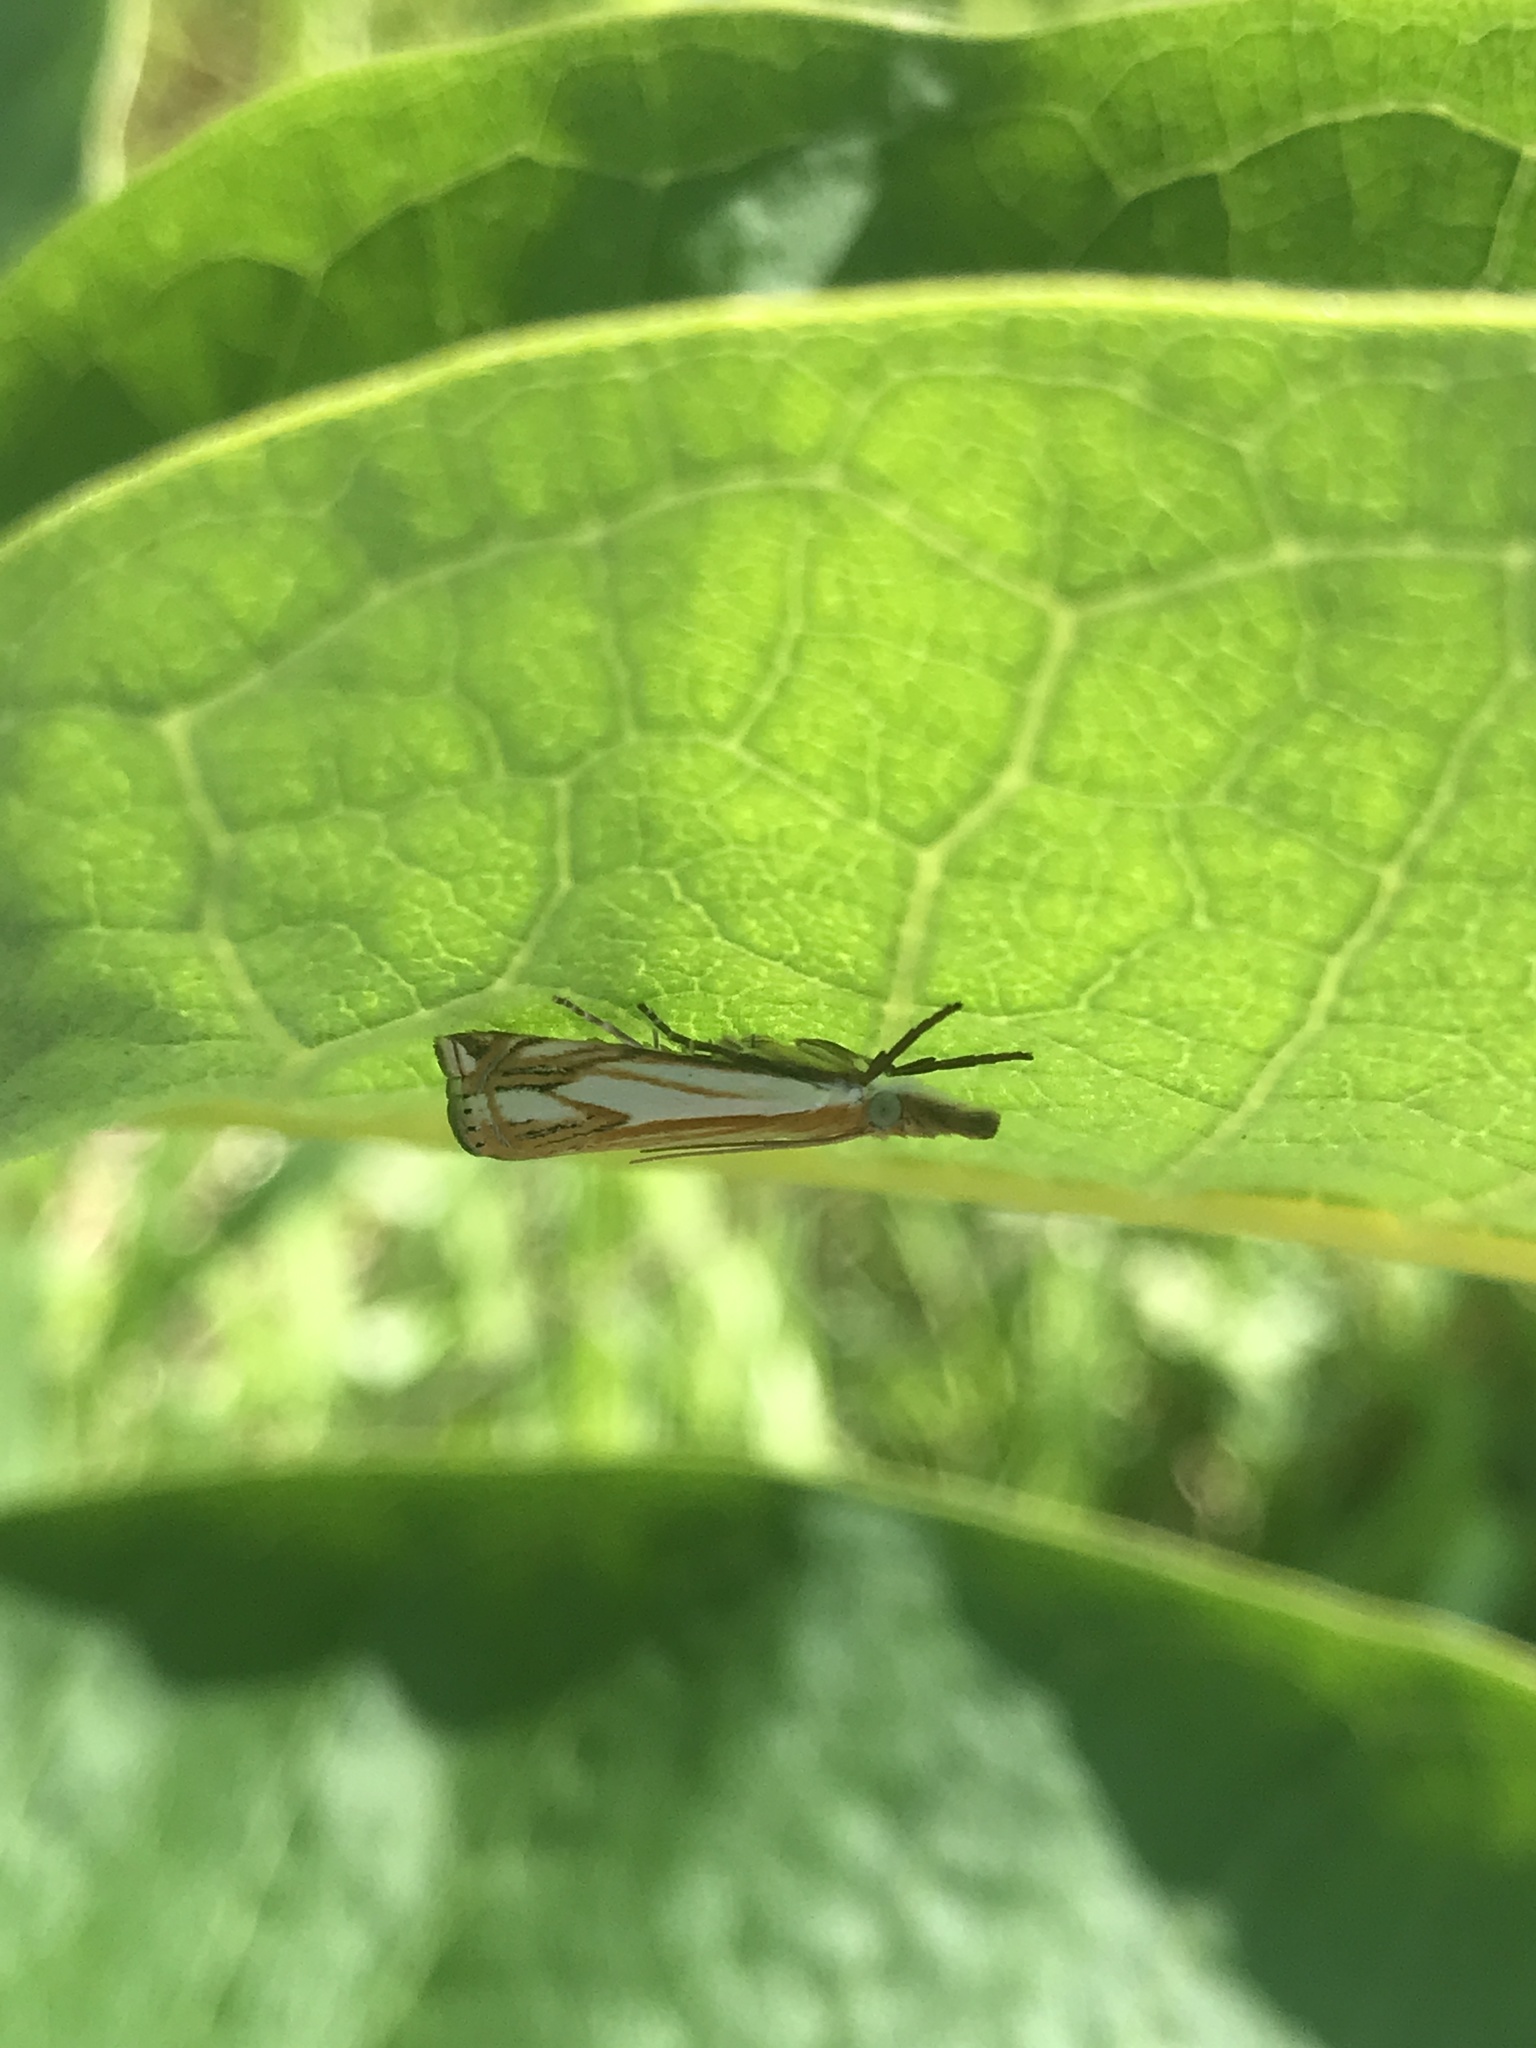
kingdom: Animalia
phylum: Arthropoda
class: Insecta
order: Lepidoptera
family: Crambidae
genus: Crambus
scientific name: Crambus agitatellus
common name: Double-banded grass-veneer
